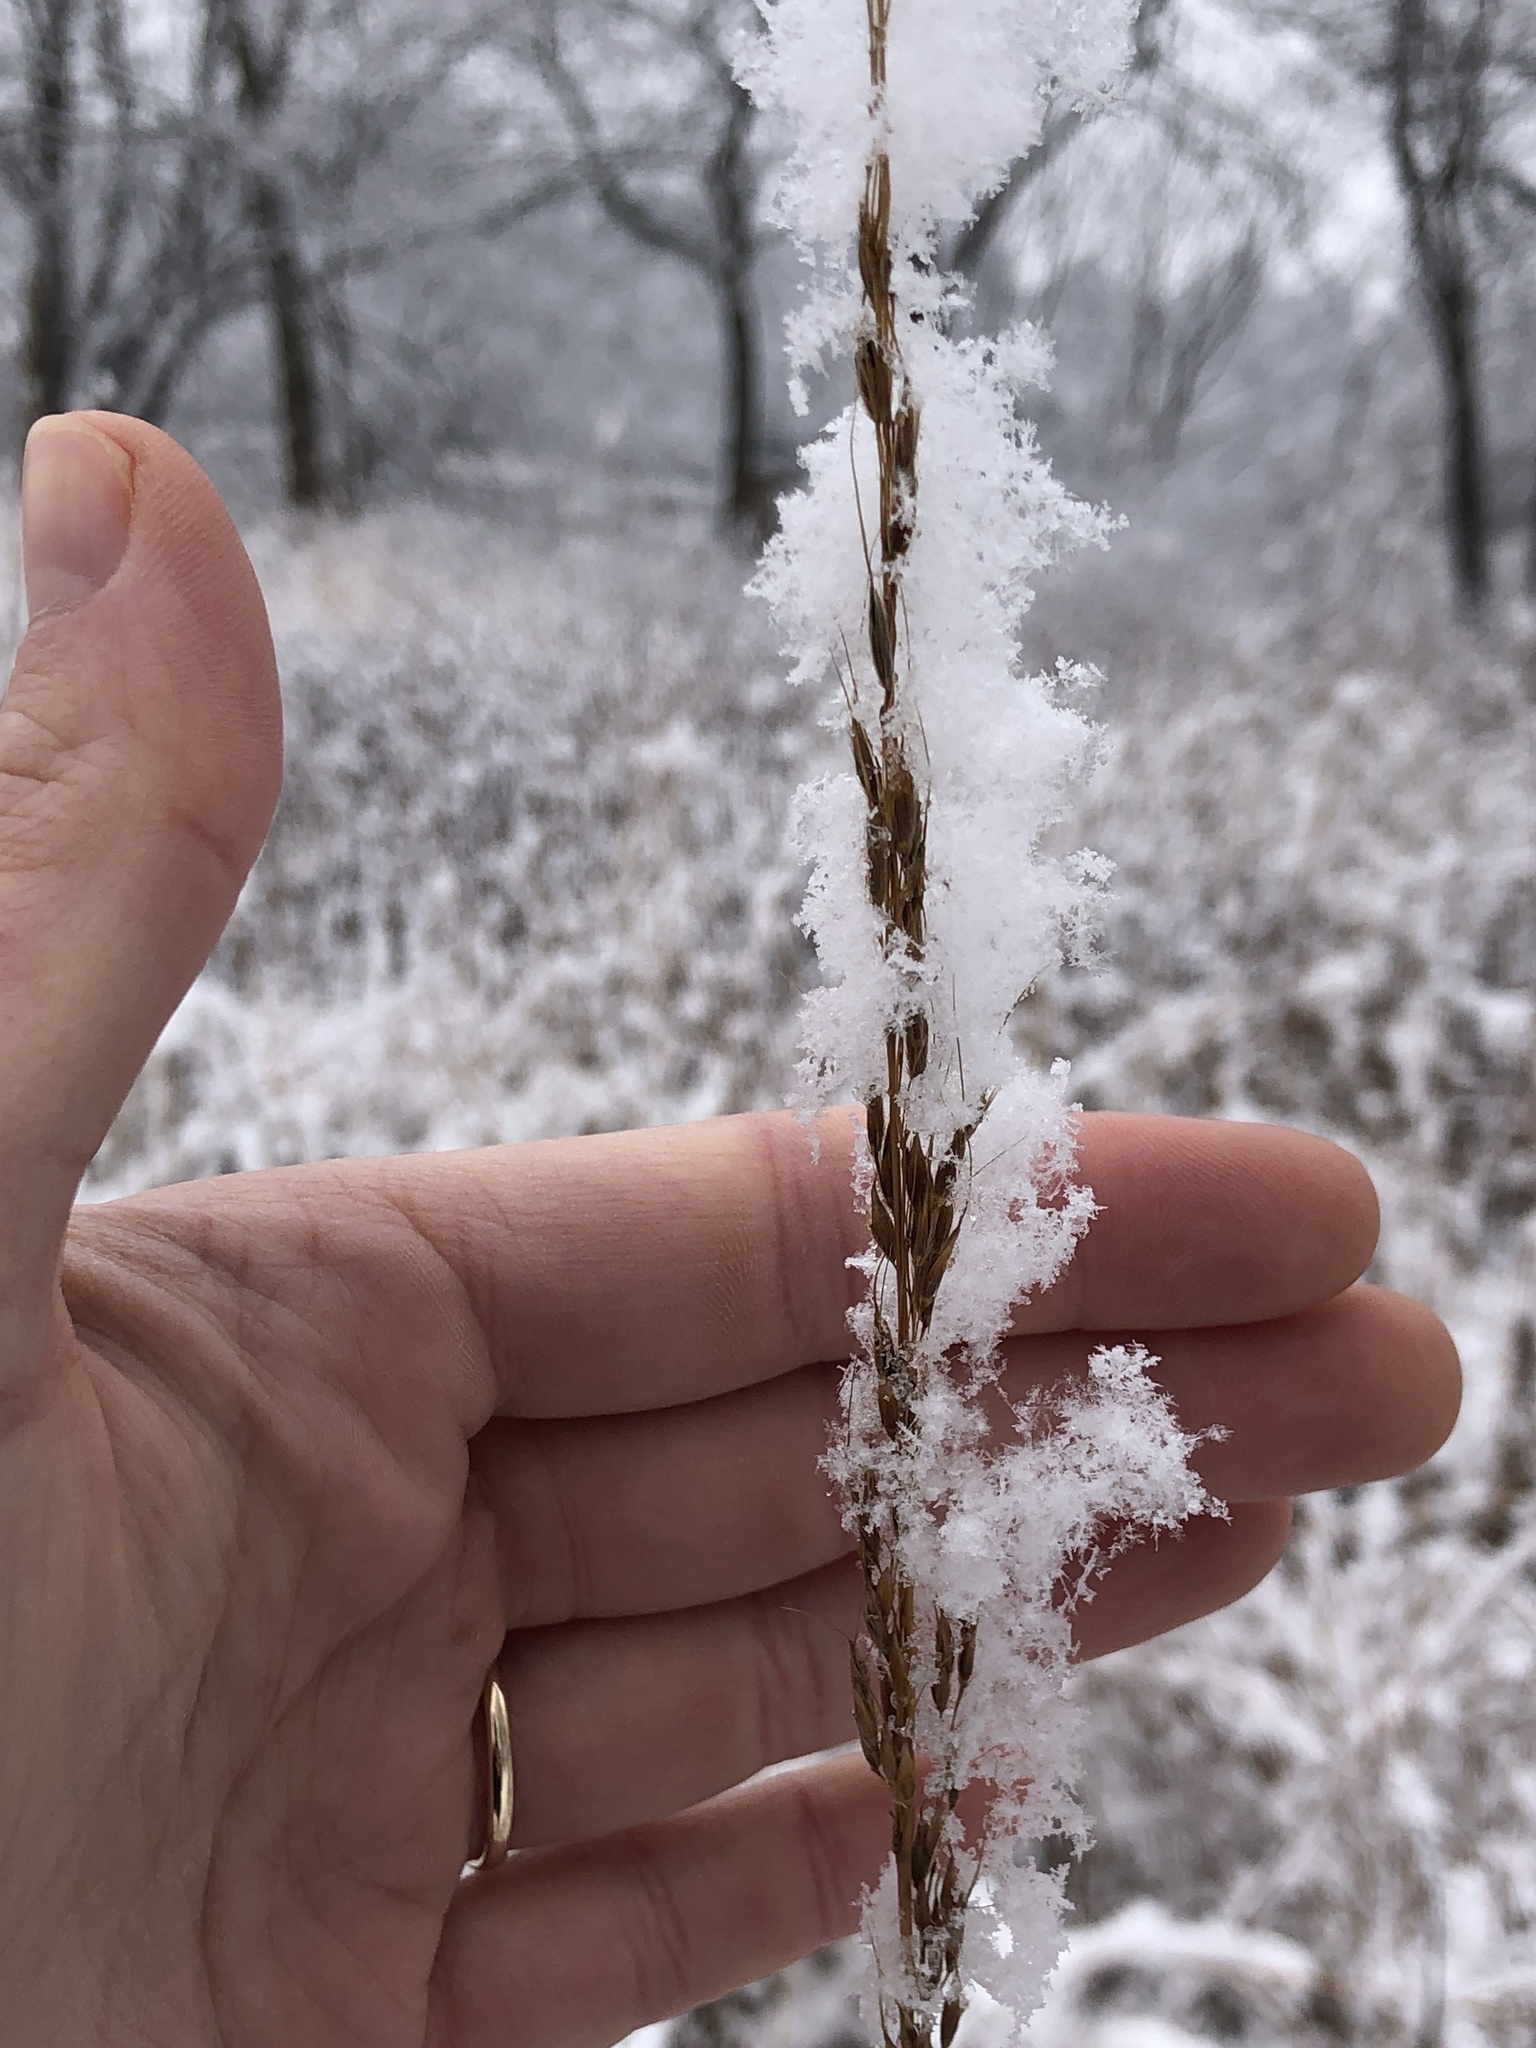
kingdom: Plantae
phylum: Tracheophyta
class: Liliopsida
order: Poales
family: Poaceae
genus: Sorghastrum
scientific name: Sorghastrum nutans
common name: Indian grass
